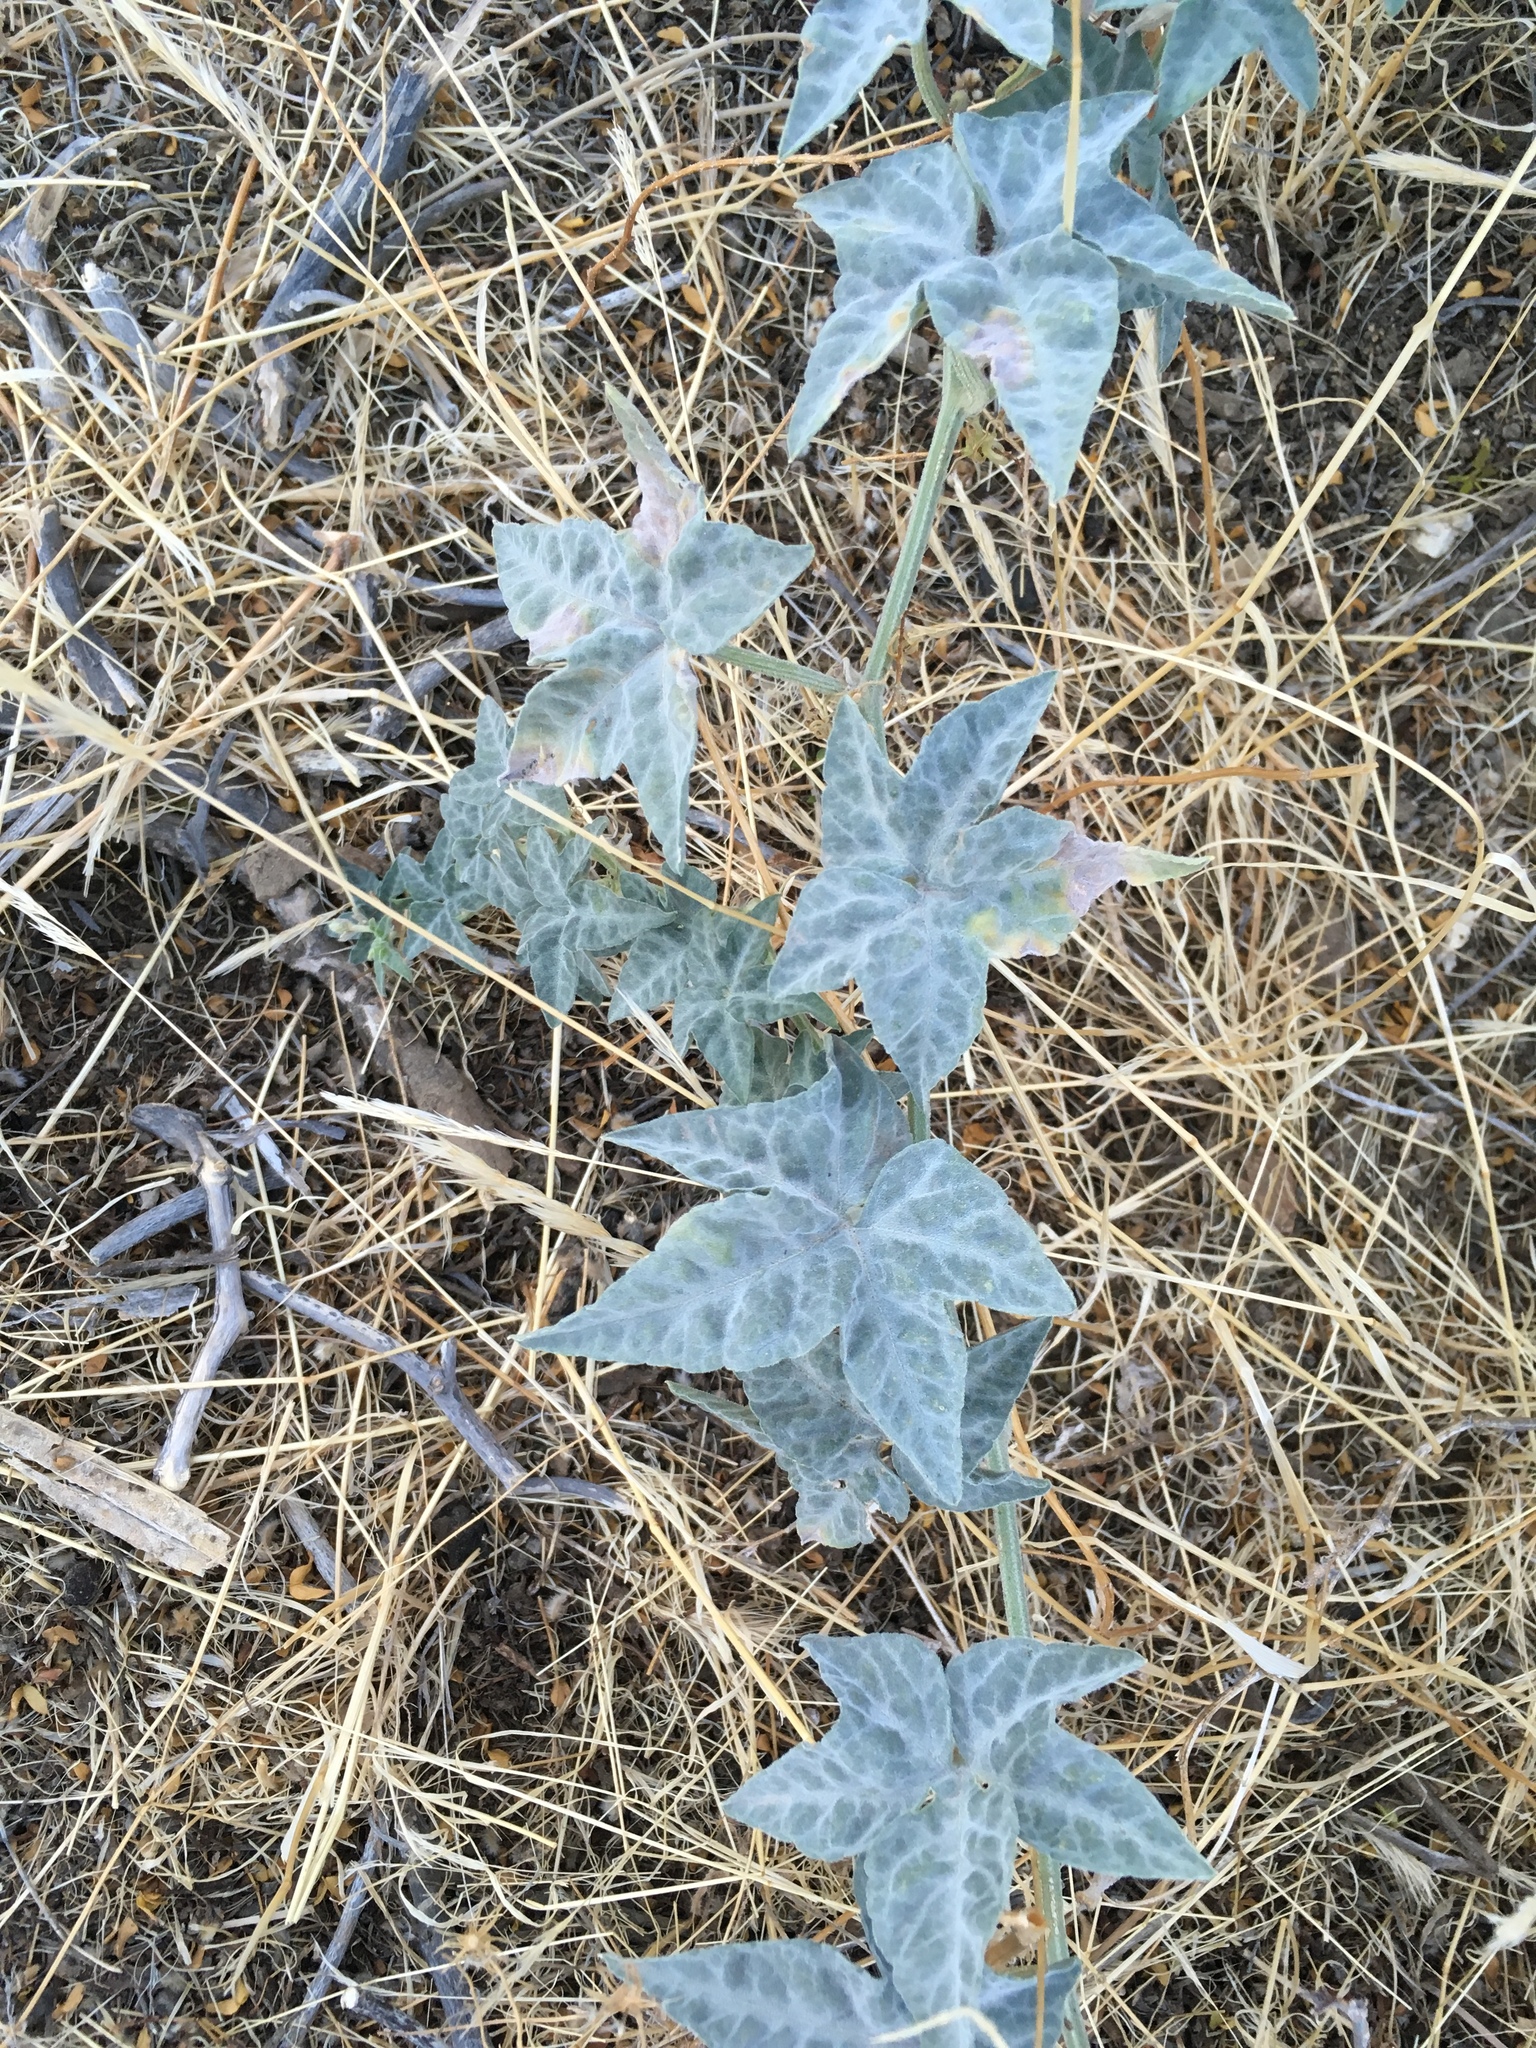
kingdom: Plantae
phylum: Tracheophyta
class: Magnoliopsida
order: Cucurbitales
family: Cucurbitaceae
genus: Cucurbita
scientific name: Cucurbita palmata
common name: Coyote-melon
